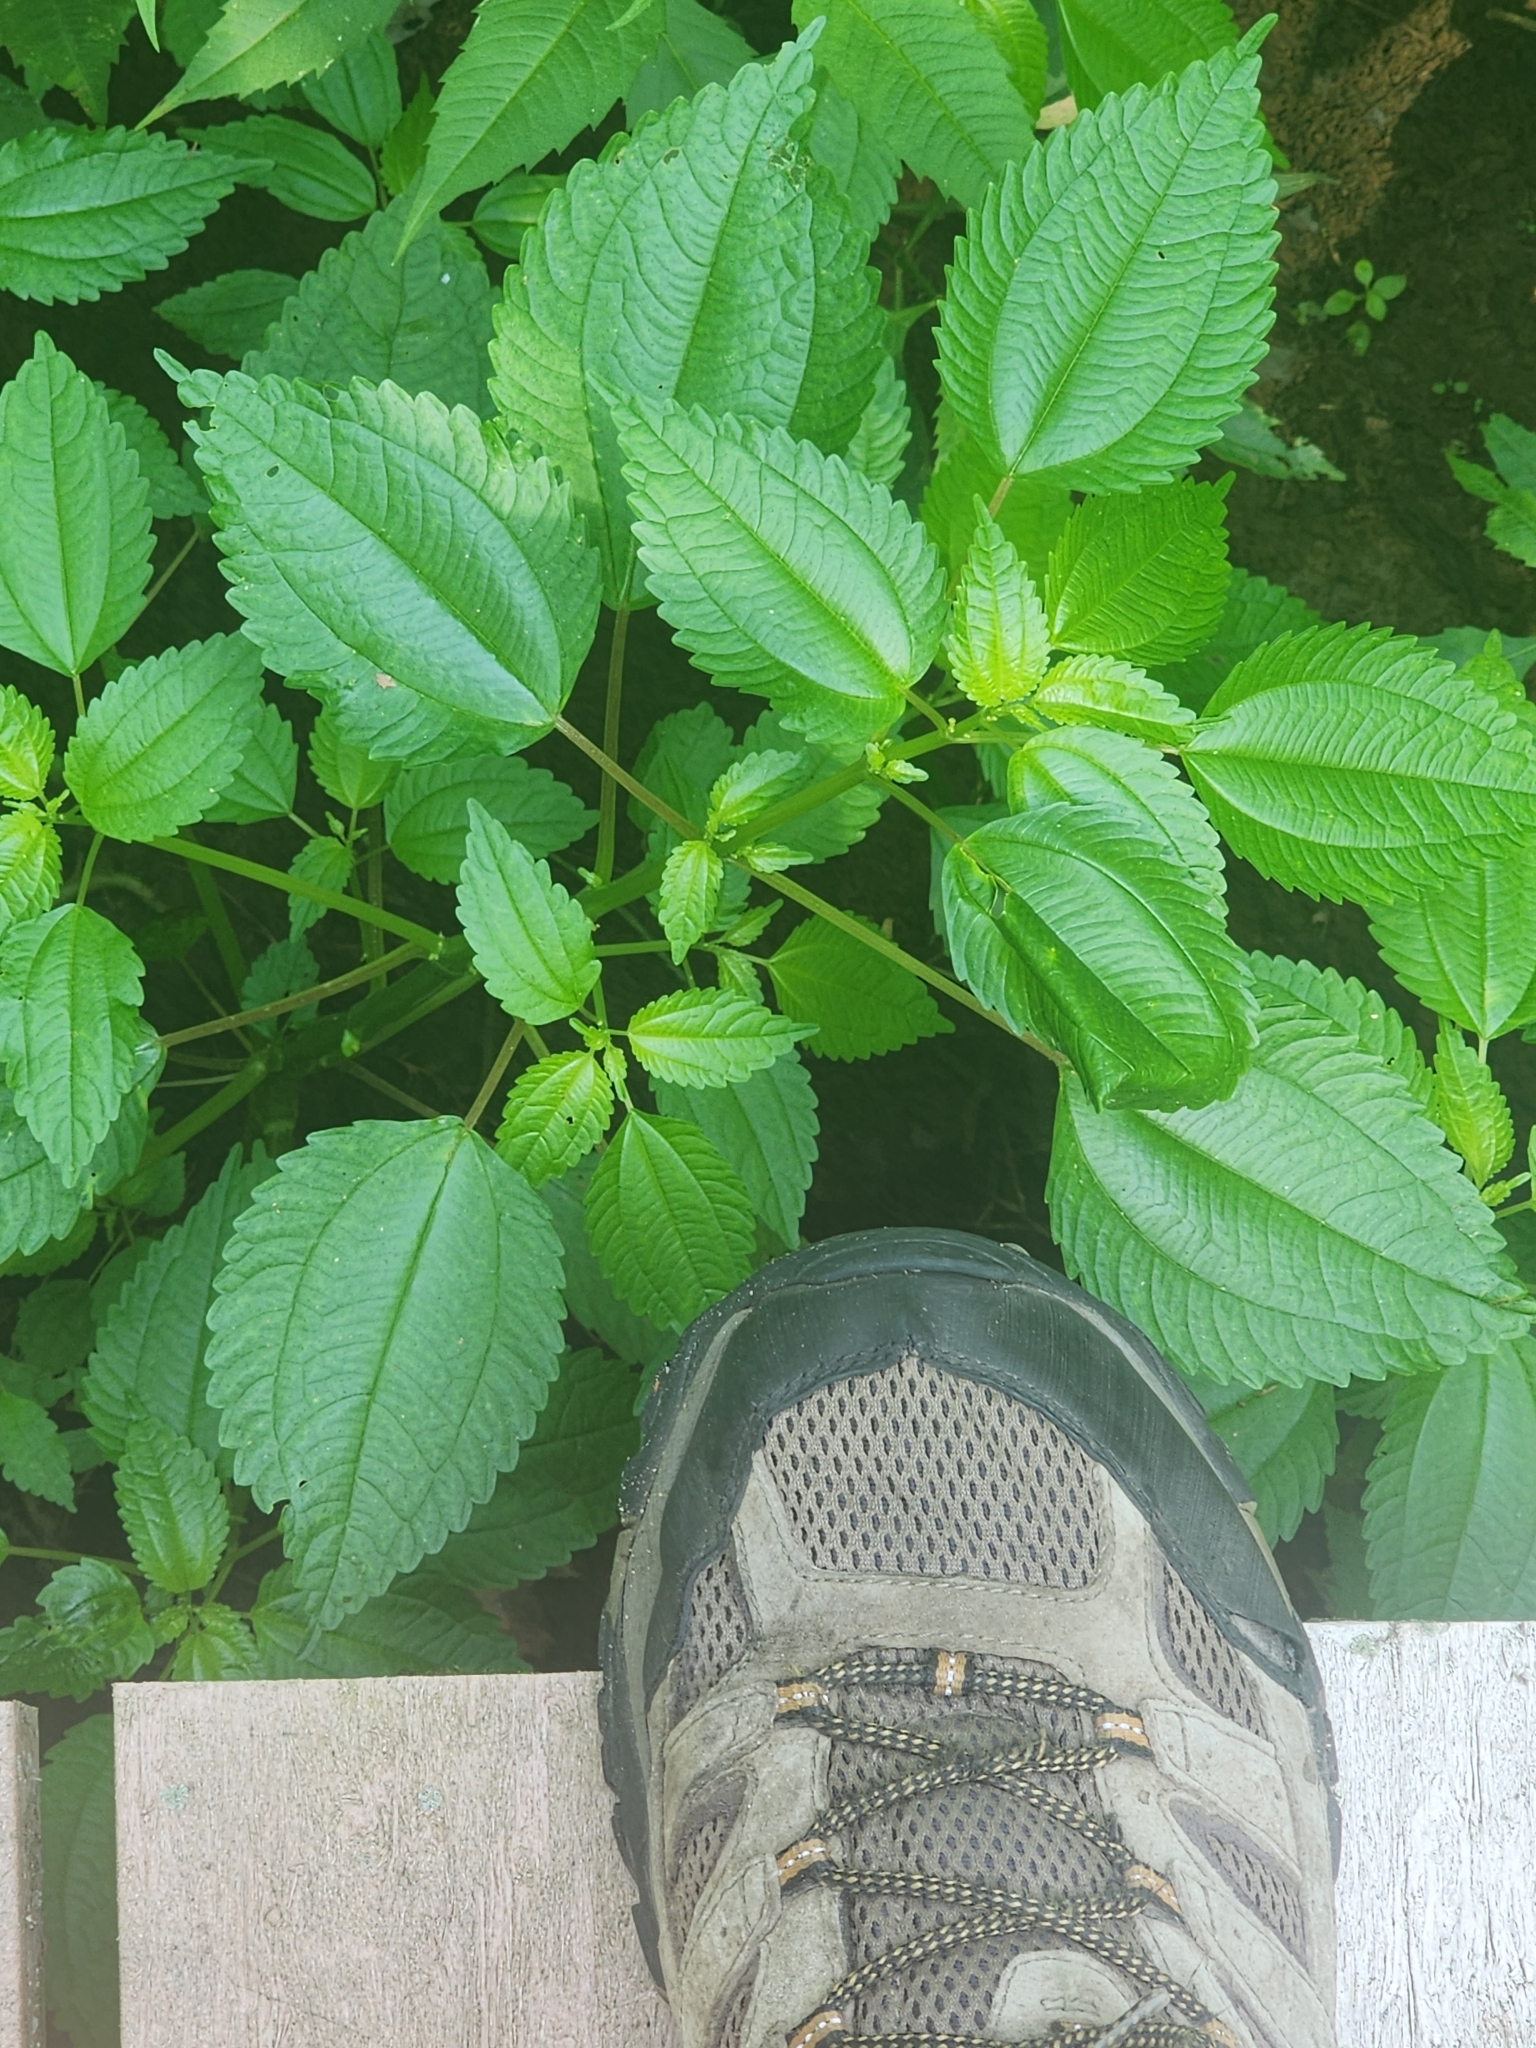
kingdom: Plantae
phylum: Tracheophyta
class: Magnoliopsida
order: Rosales
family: Urticaceae
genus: Pilea
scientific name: Pilea pumila
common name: Clearweed
